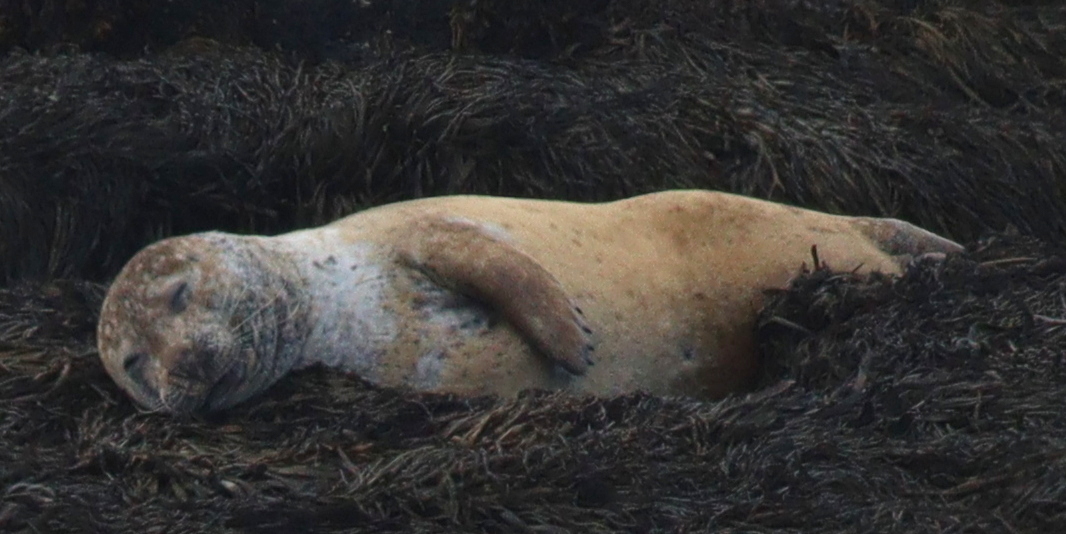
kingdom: Animalia
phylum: Chordata
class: Mammalia
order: Carnivora
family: Phocidae
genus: Phoca
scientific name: Phoca vitulina
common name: Harbor seal
